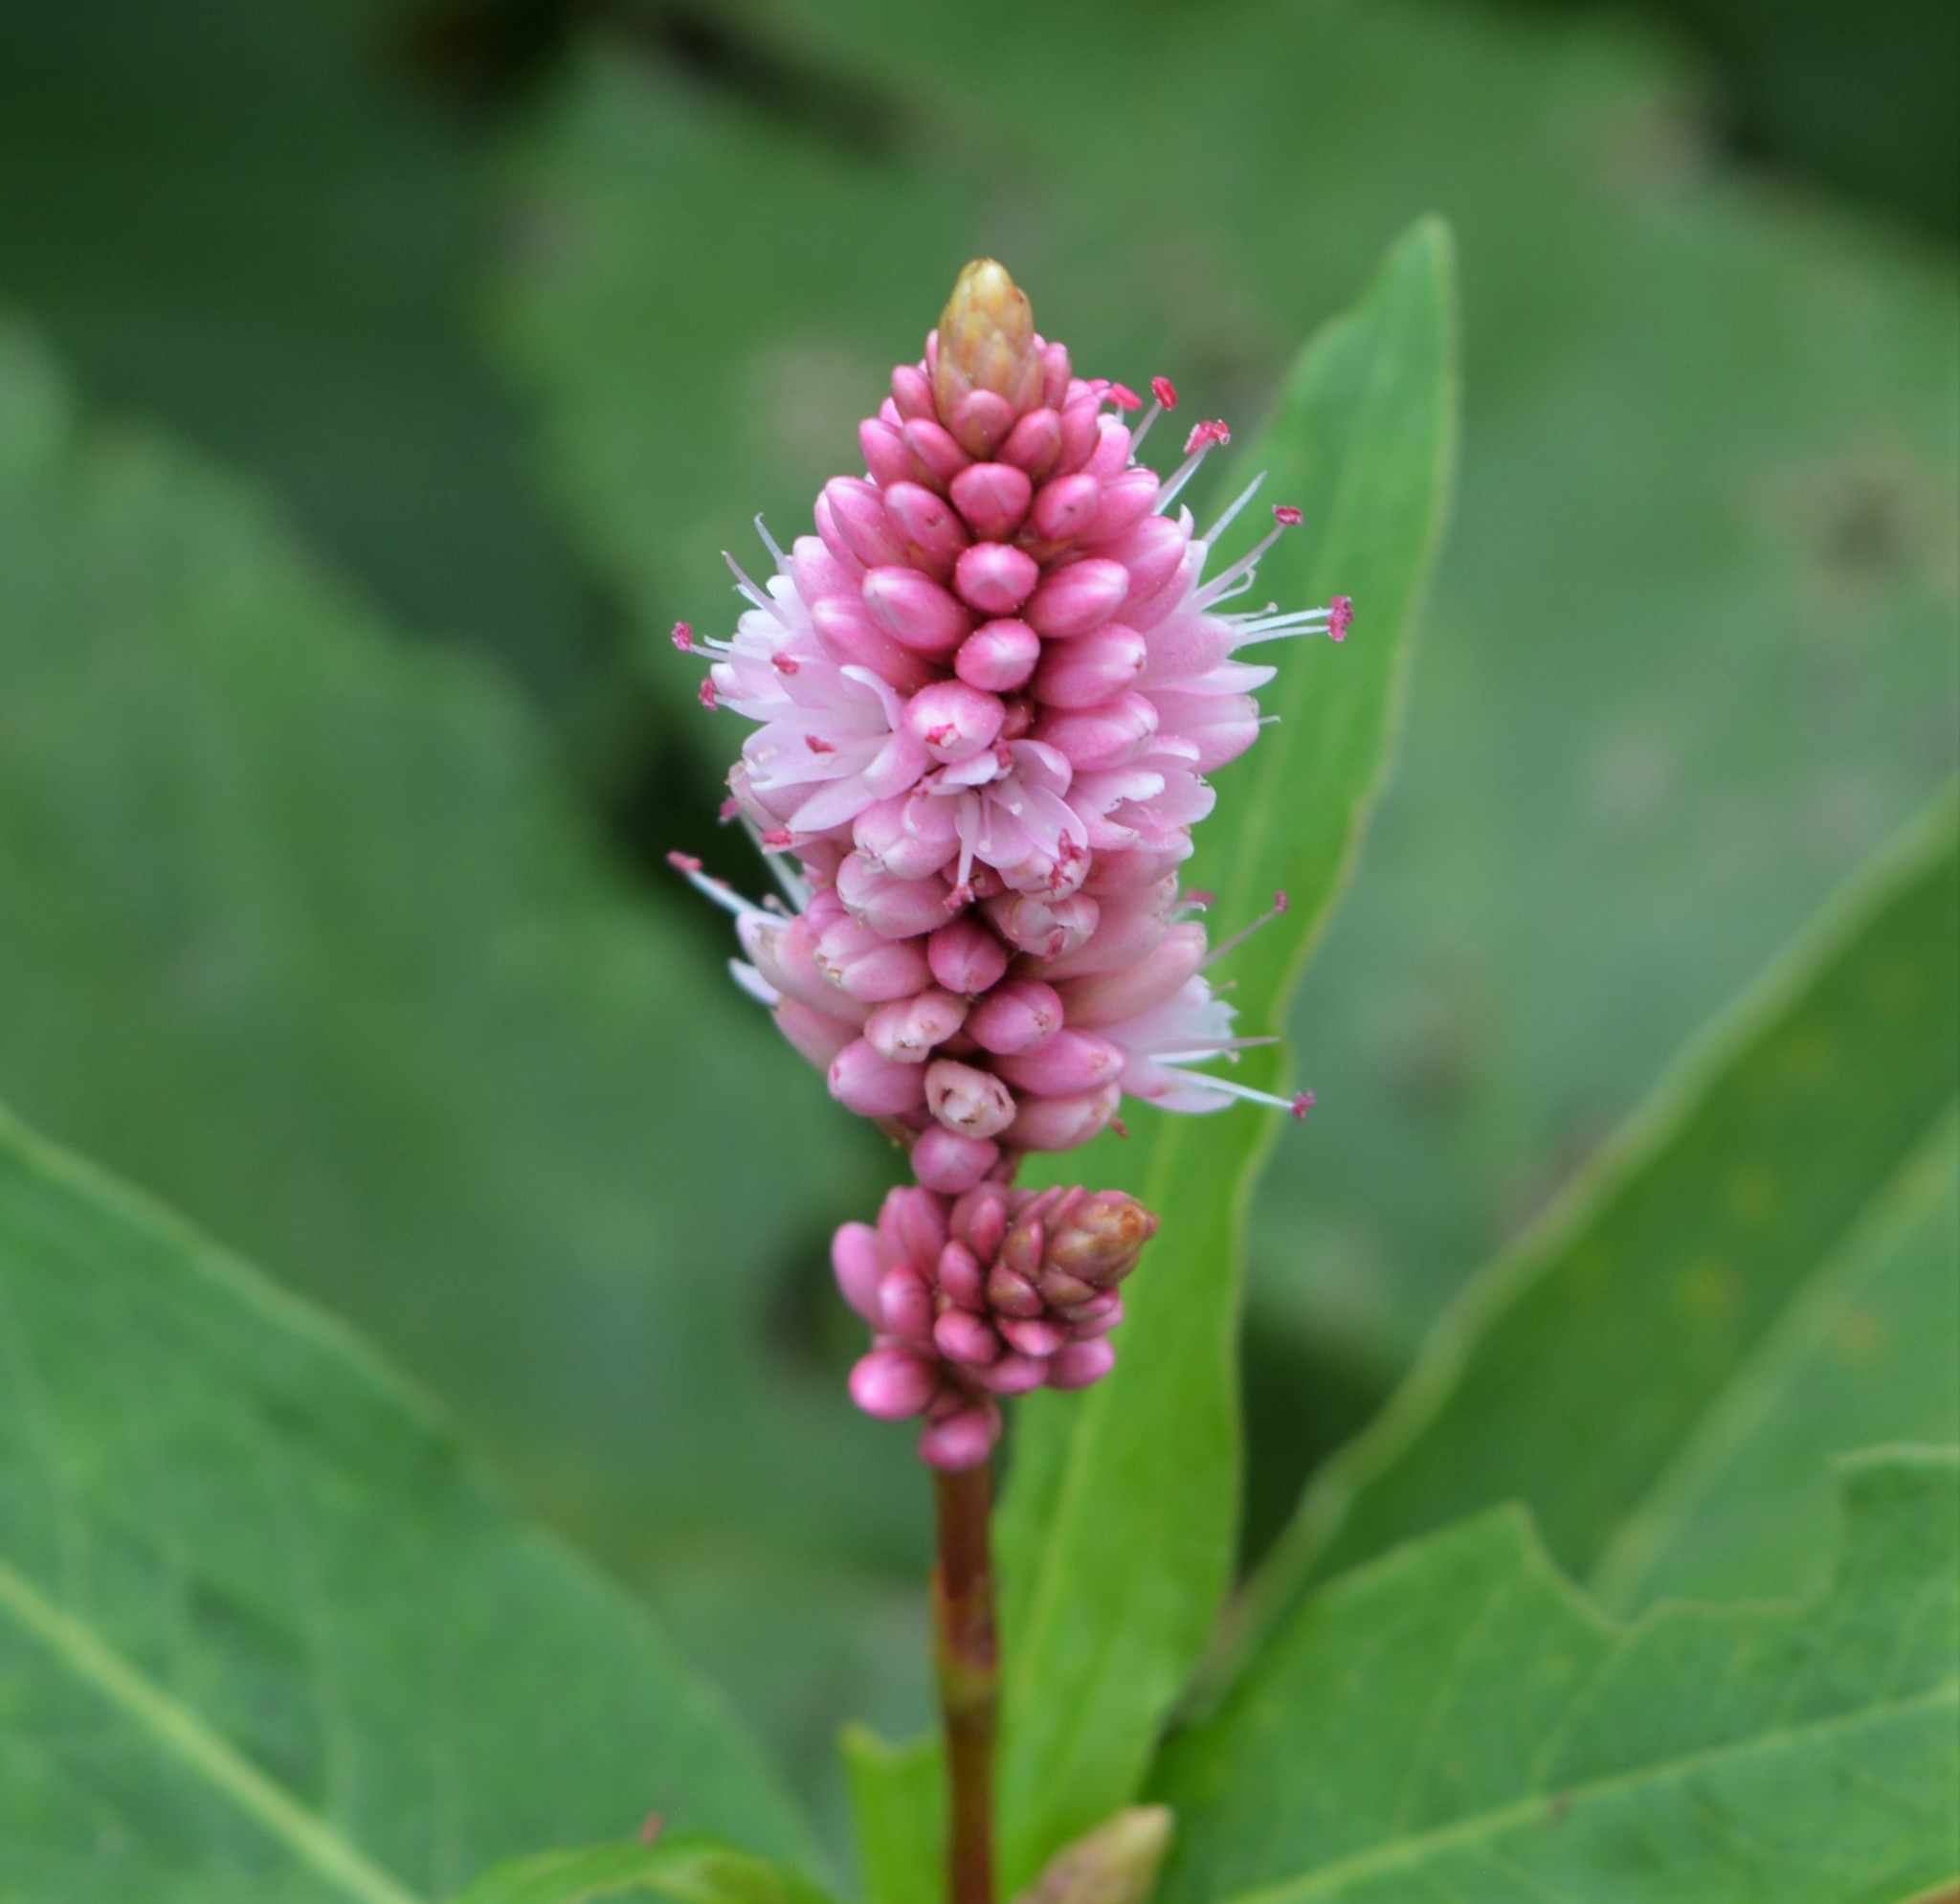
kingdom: Plantae
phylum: Tracheophyta
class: Magnoliopsida
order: Caryophyllales
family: Polygonaceae
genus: Persicaria
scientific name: Persicaria amphibia
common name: Amphibious bistort
